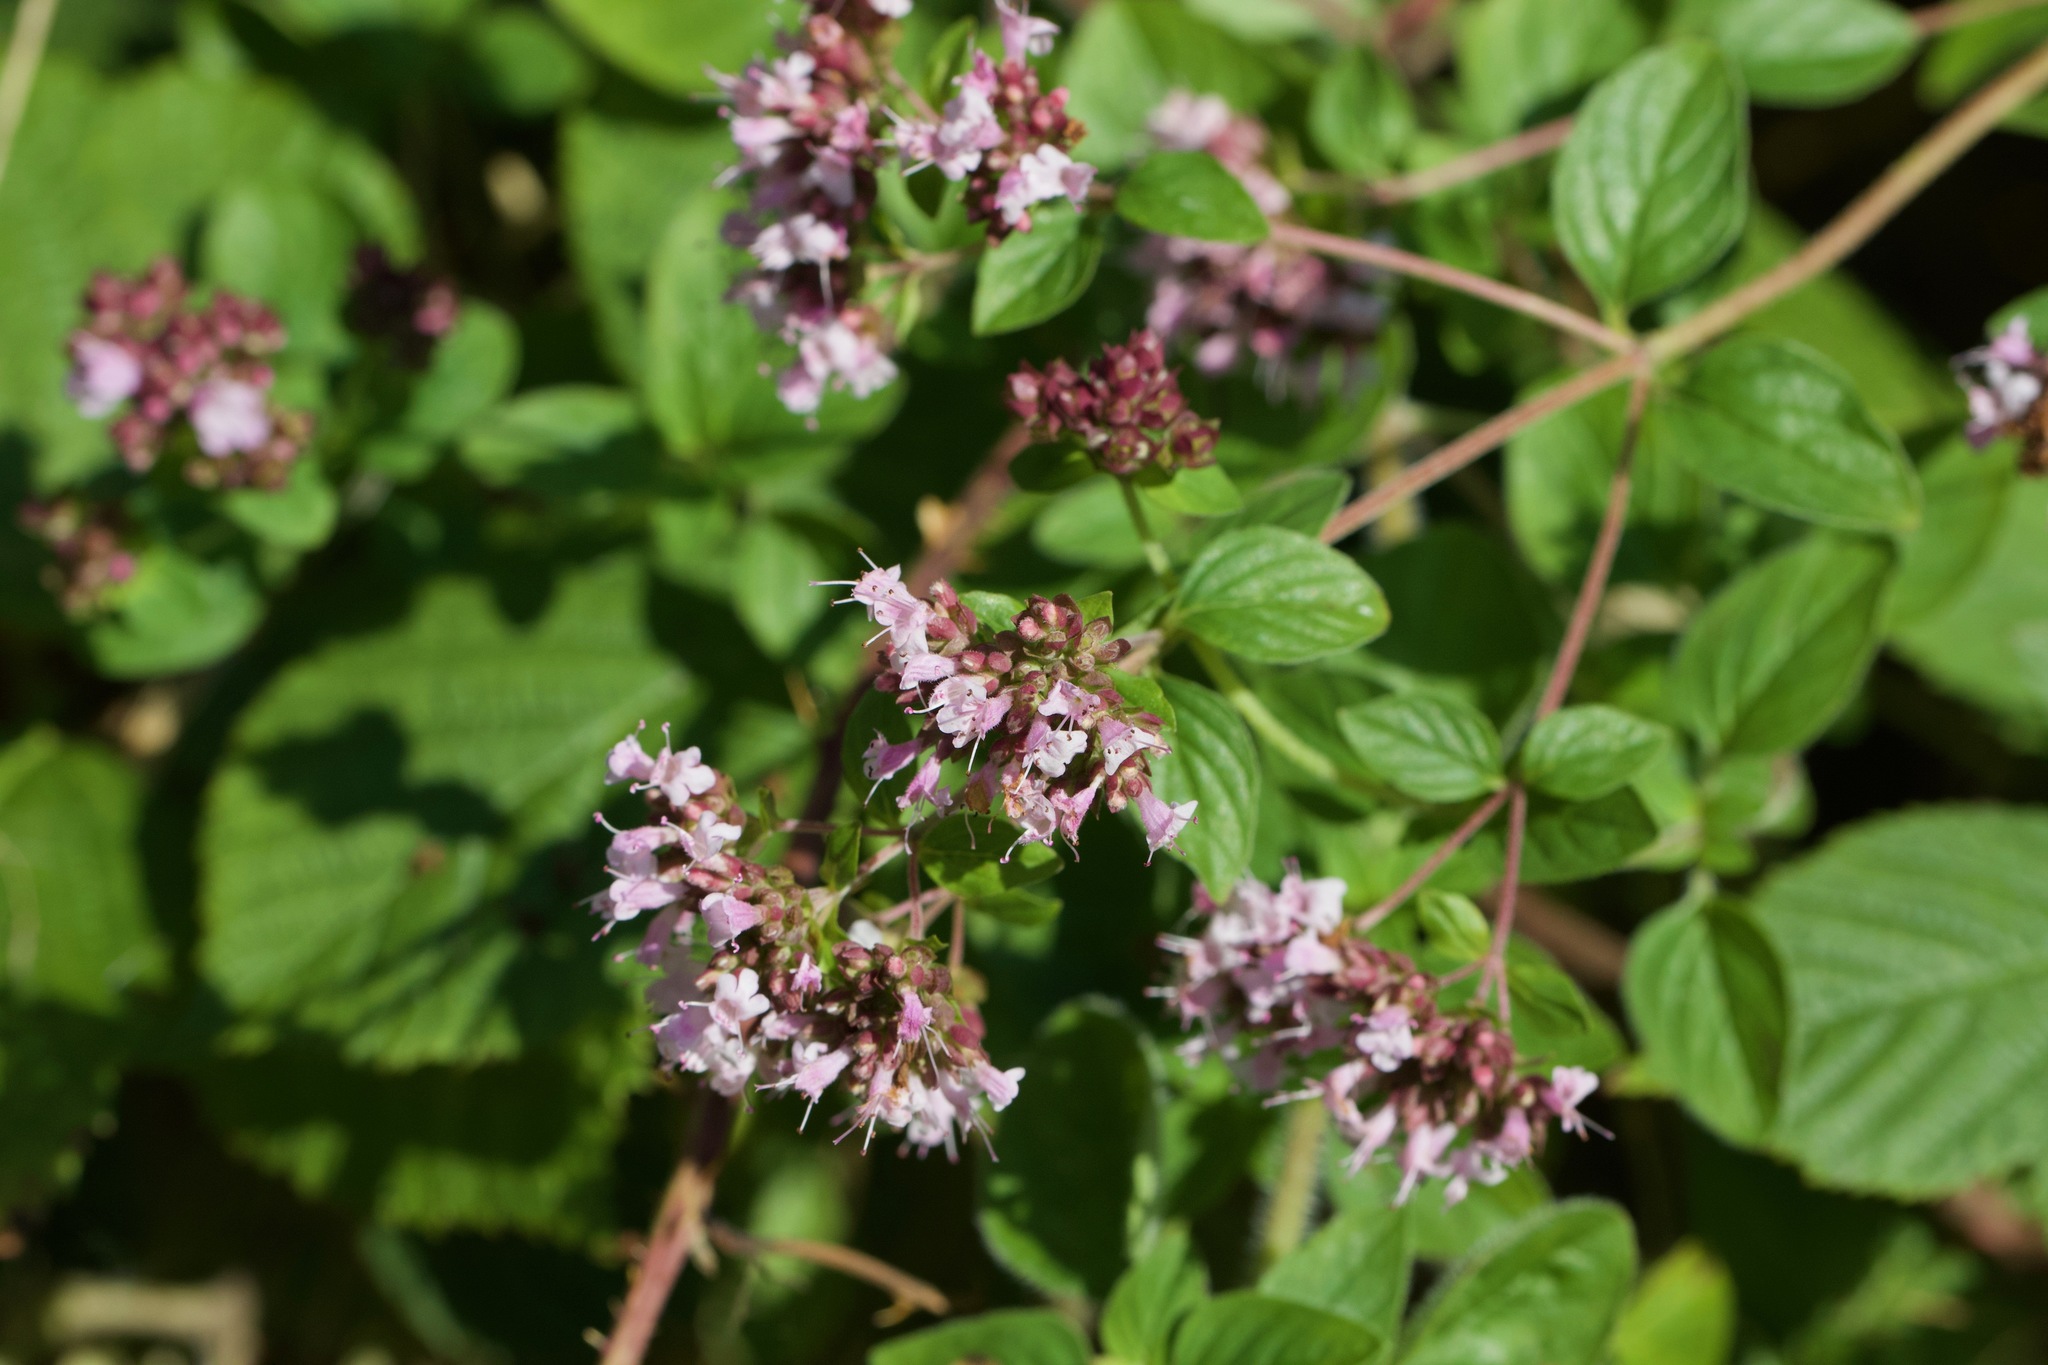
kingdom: Plantae
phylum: Tracheophyta
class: Magnoliopsida
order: Lamiales
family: Lamiaceae
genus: Origanum
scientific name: Origanum vulgare
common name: Wild marjoram
